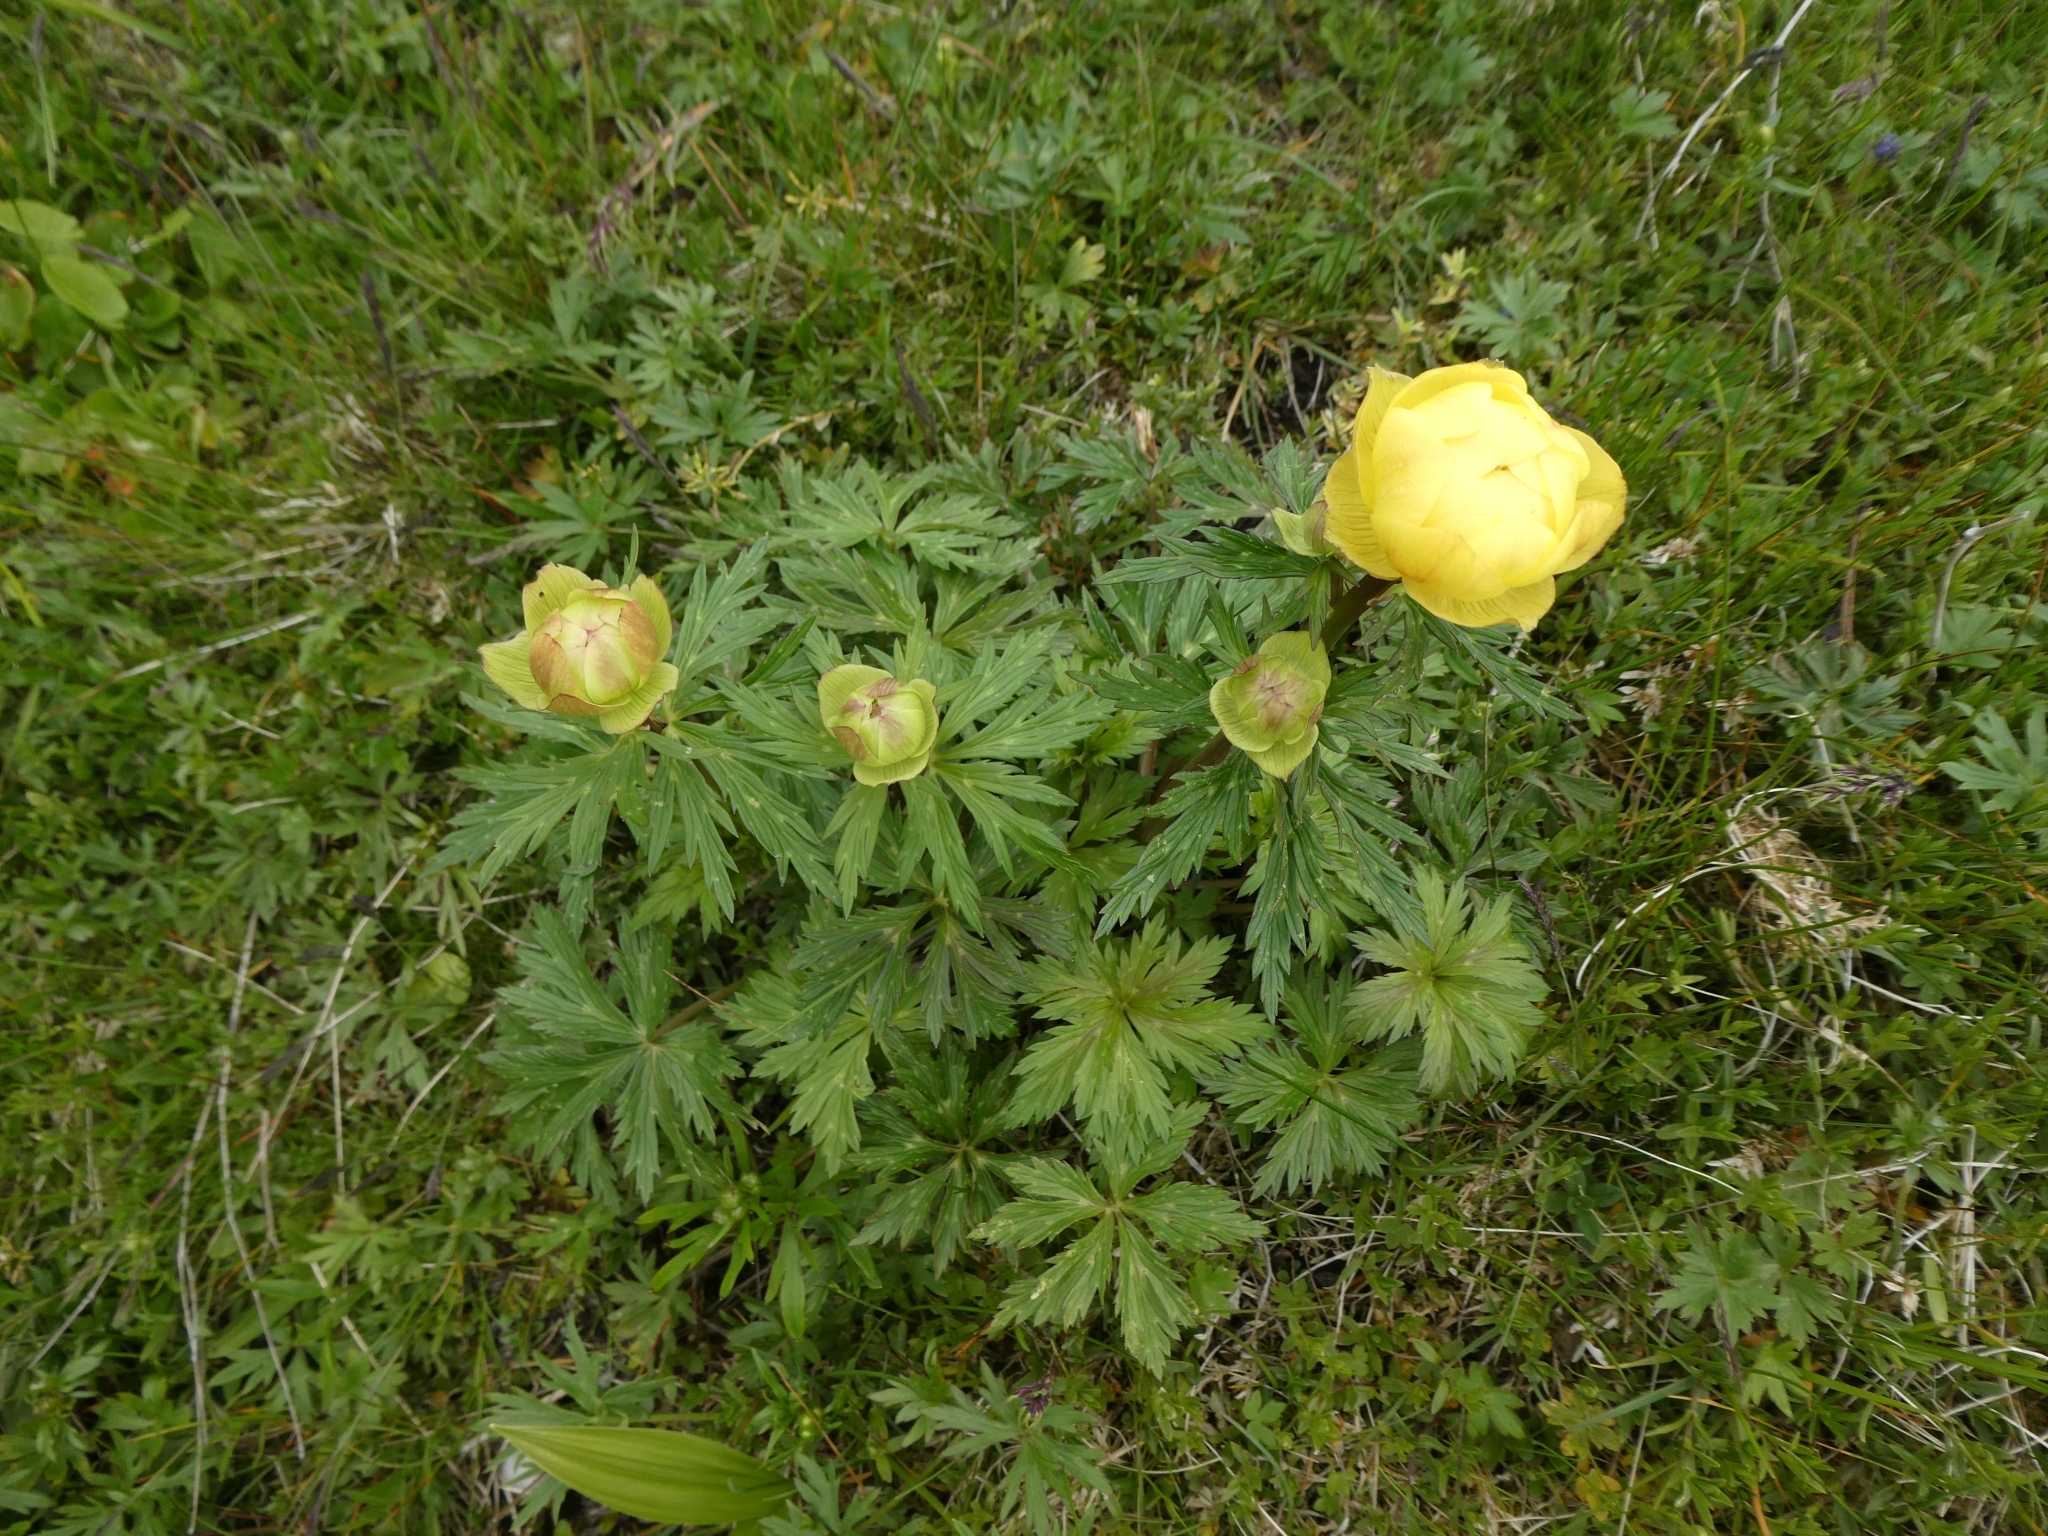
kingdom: Plantae
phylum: Tracheophyta
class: Magnoliopsida
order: Ranunculales
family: Ranunculaceae
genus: Trollius
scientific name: Trollius europaeus
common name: European globeflower
